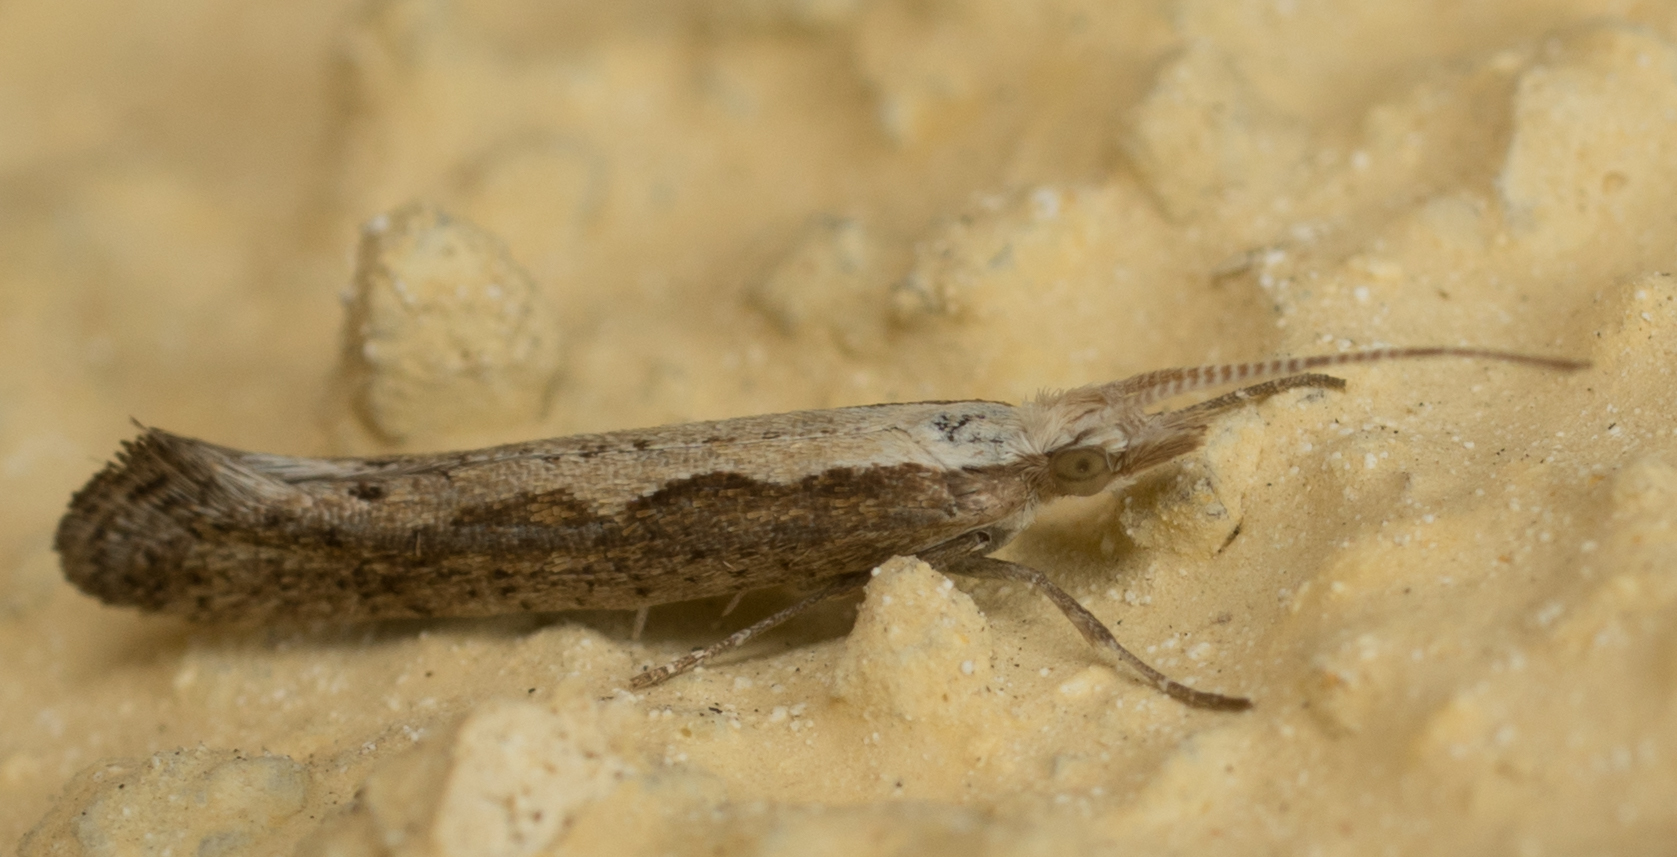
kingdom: Animalia
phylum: Arthropoda
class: Insecta
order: Lepidoptera
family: Plutellidae
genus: Plutella
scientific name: Plutella xylostella
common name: Diamond-back moth
